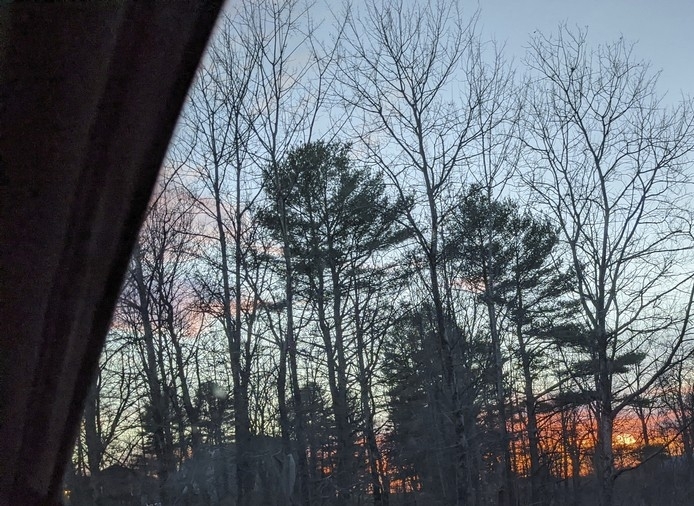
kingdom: Plantae
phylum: Tracheophyta
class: Pinopsida
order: Pinales
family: Pinaceae
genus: Pinus
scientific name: Pinus strobus
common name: Weymouth pine
